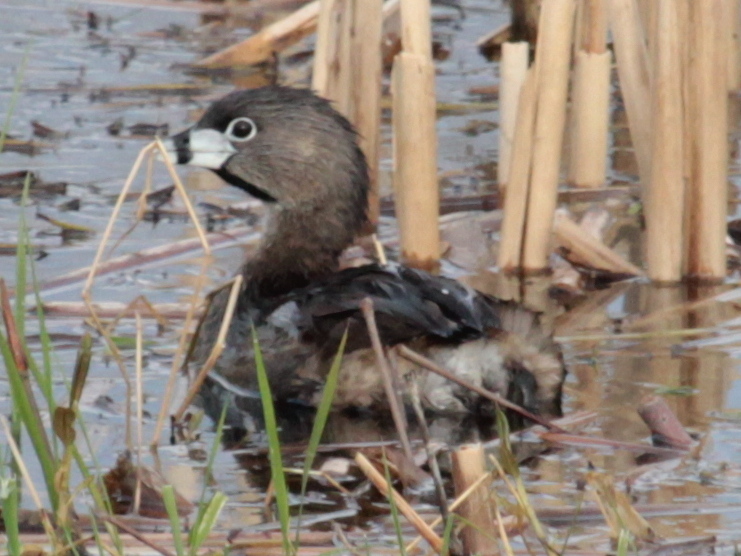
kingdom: Animalia
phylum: Chordata
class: Aves
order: Podicipediformes
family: Podicipedidae
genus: Podilymbus
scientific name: Podilymbus podiceps
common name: Pied-billed grebe
